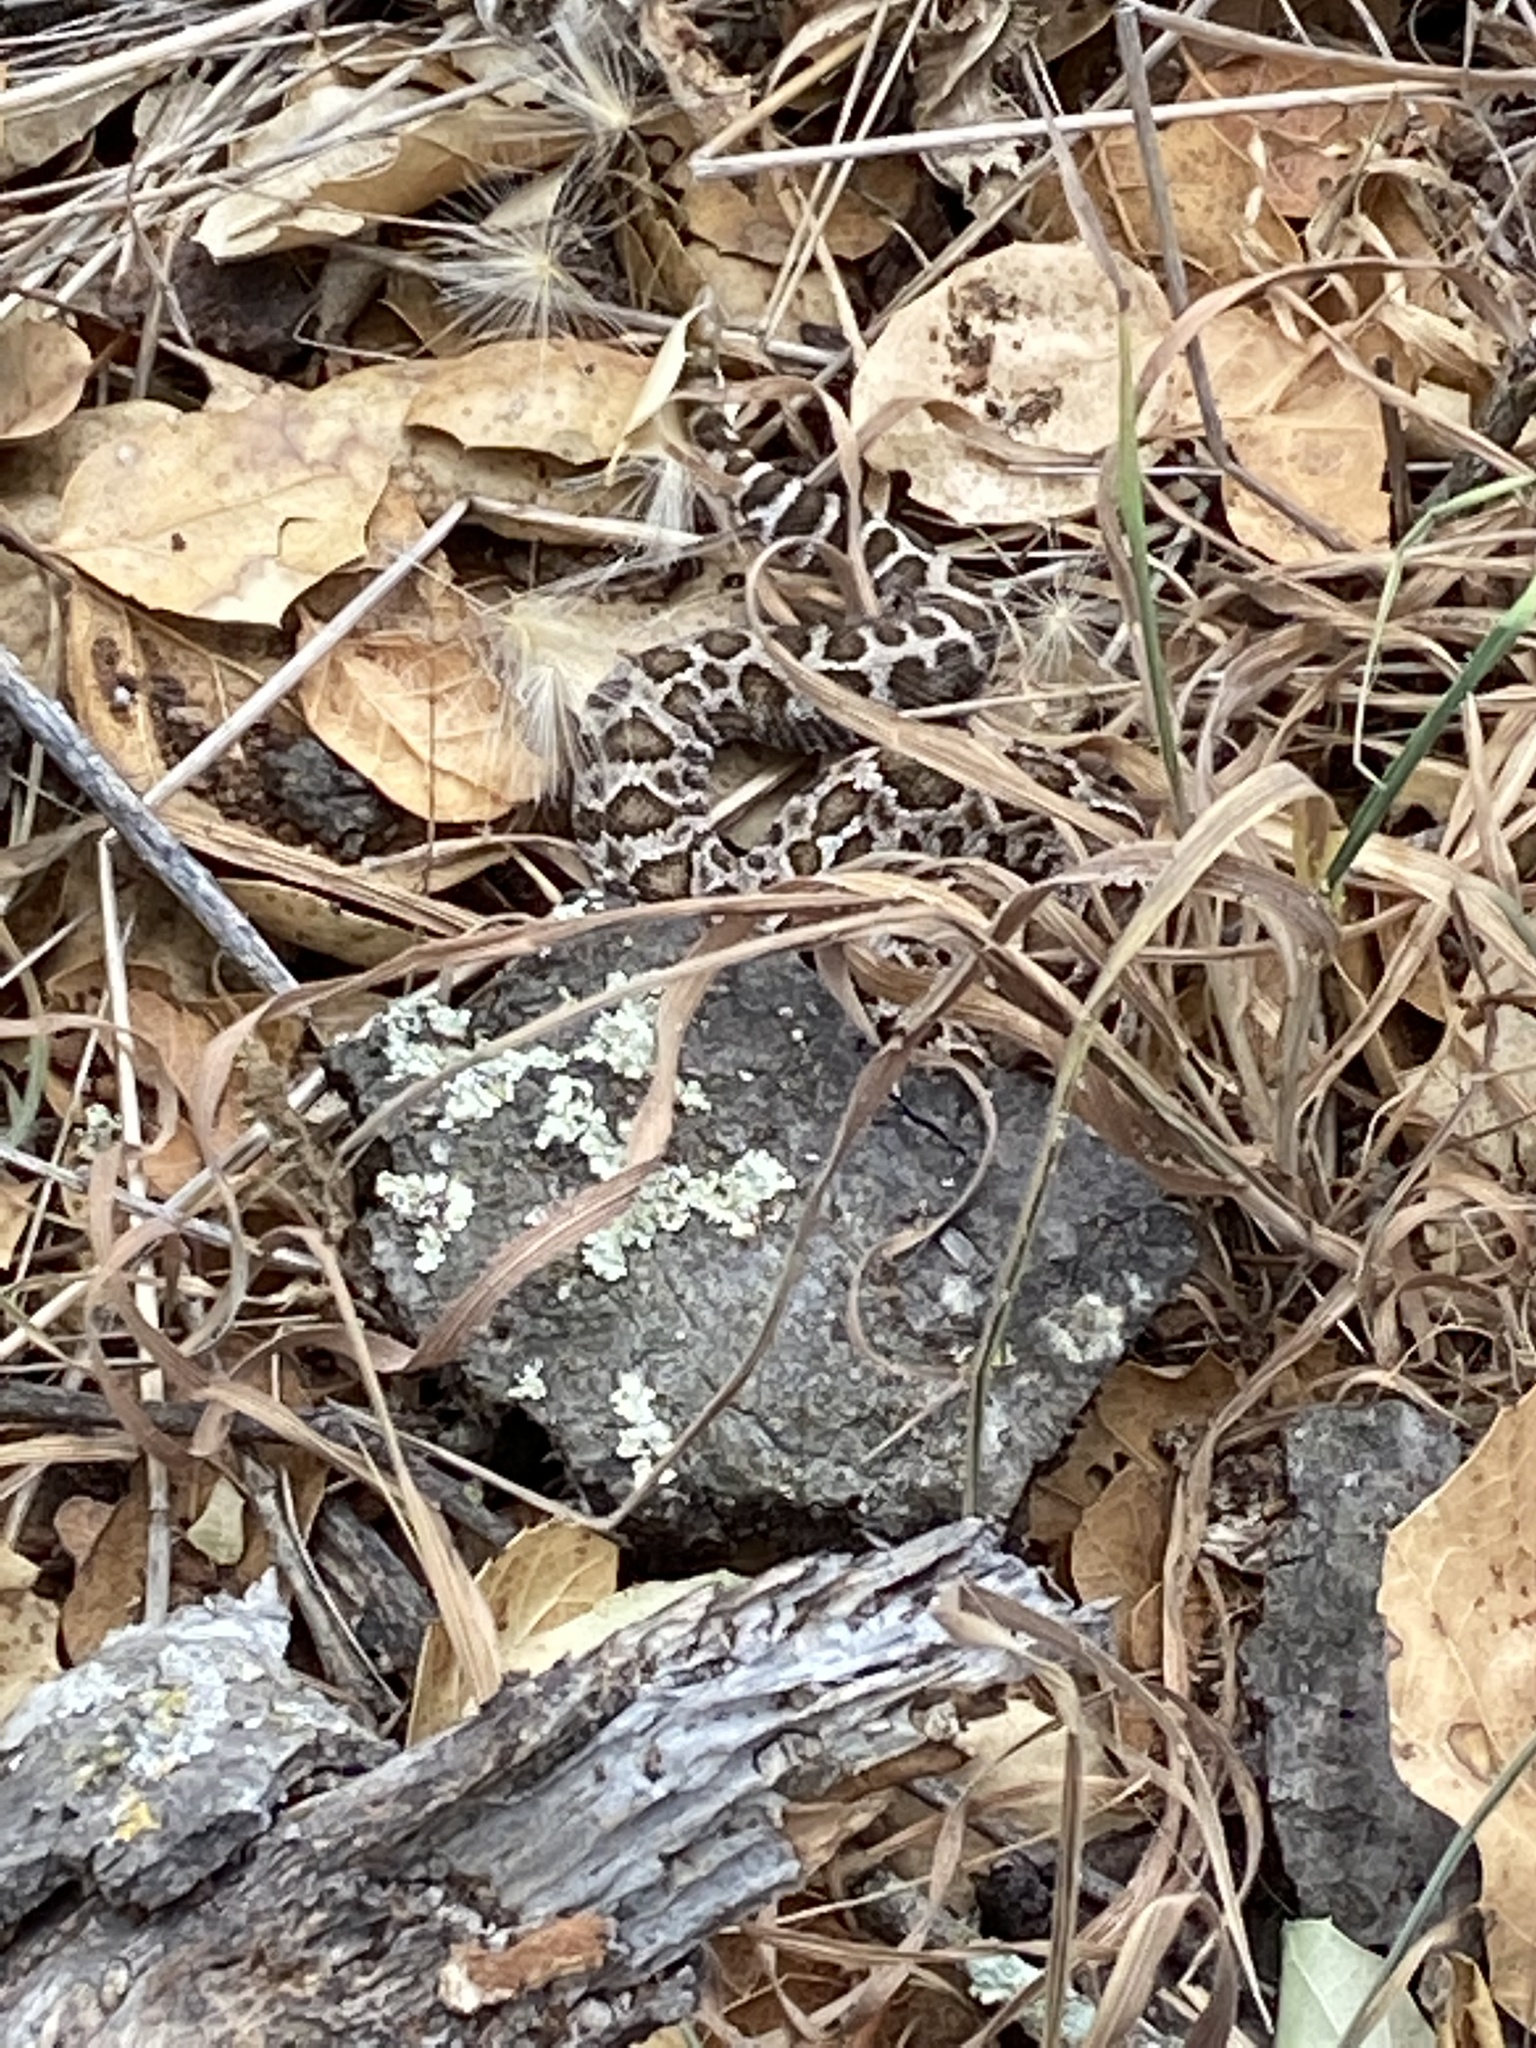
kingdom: Animalia
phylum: Chordata
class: Squamata
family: Viperidae
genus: Crotalus
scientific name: Crotalus oreganus
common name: Abyssus
